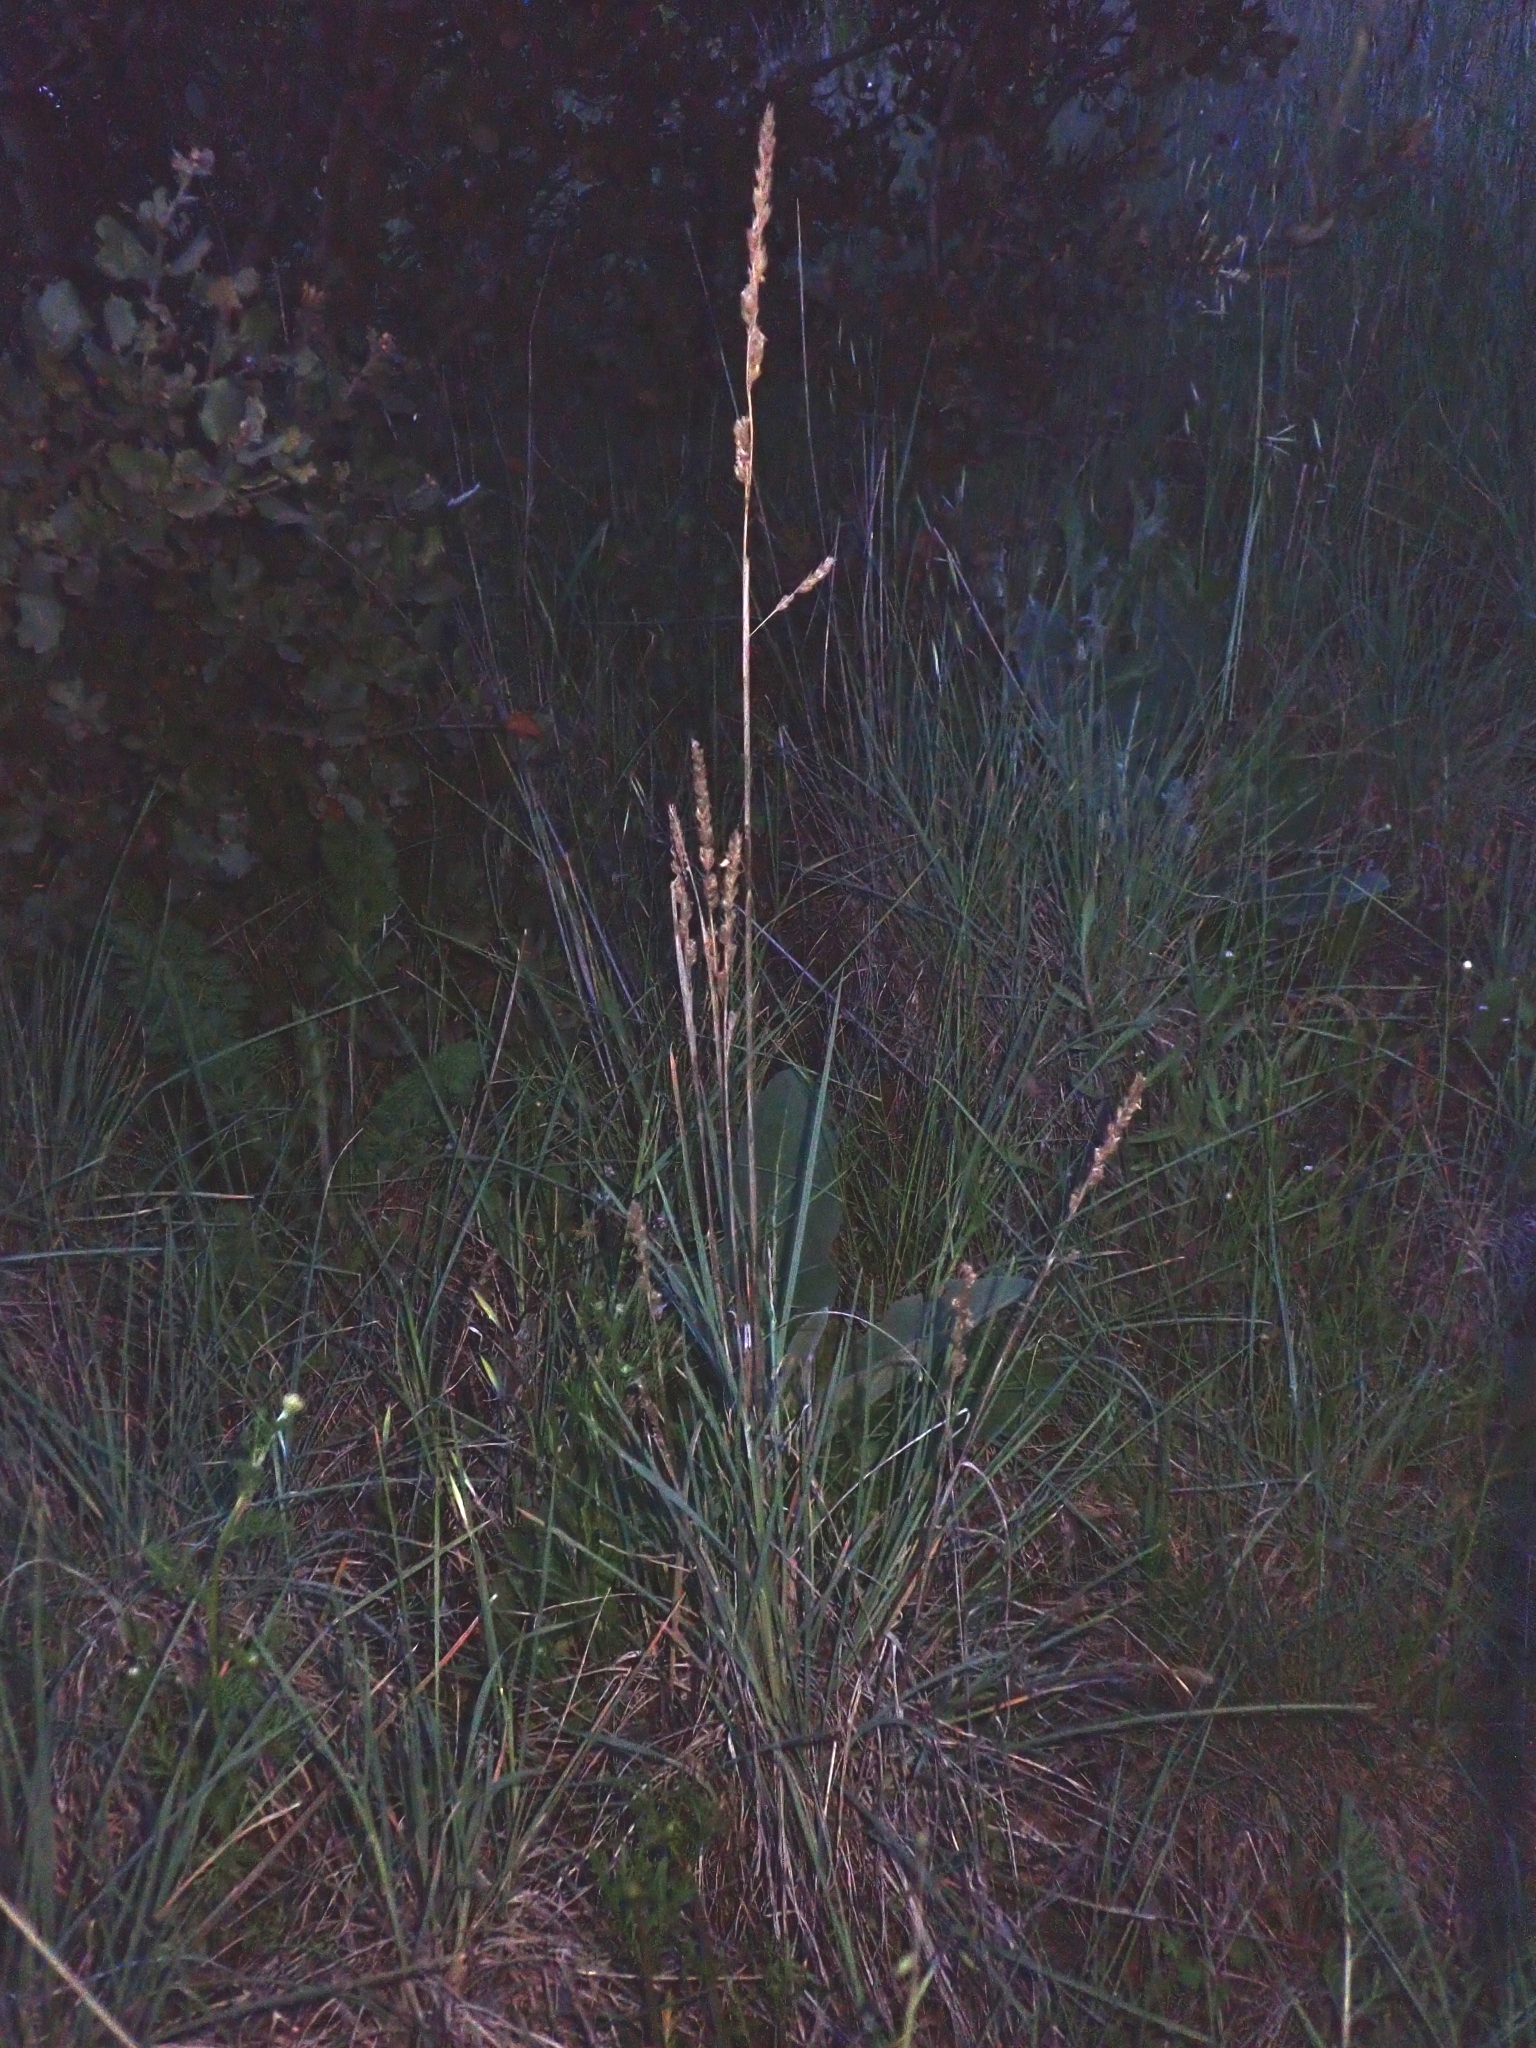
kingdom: Plantae
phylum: Tracheophyta
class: Liliopsida
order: Poales
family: Poaceae
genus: Dactylis
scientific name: Dactylis glomerata
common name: Orchardgrass
